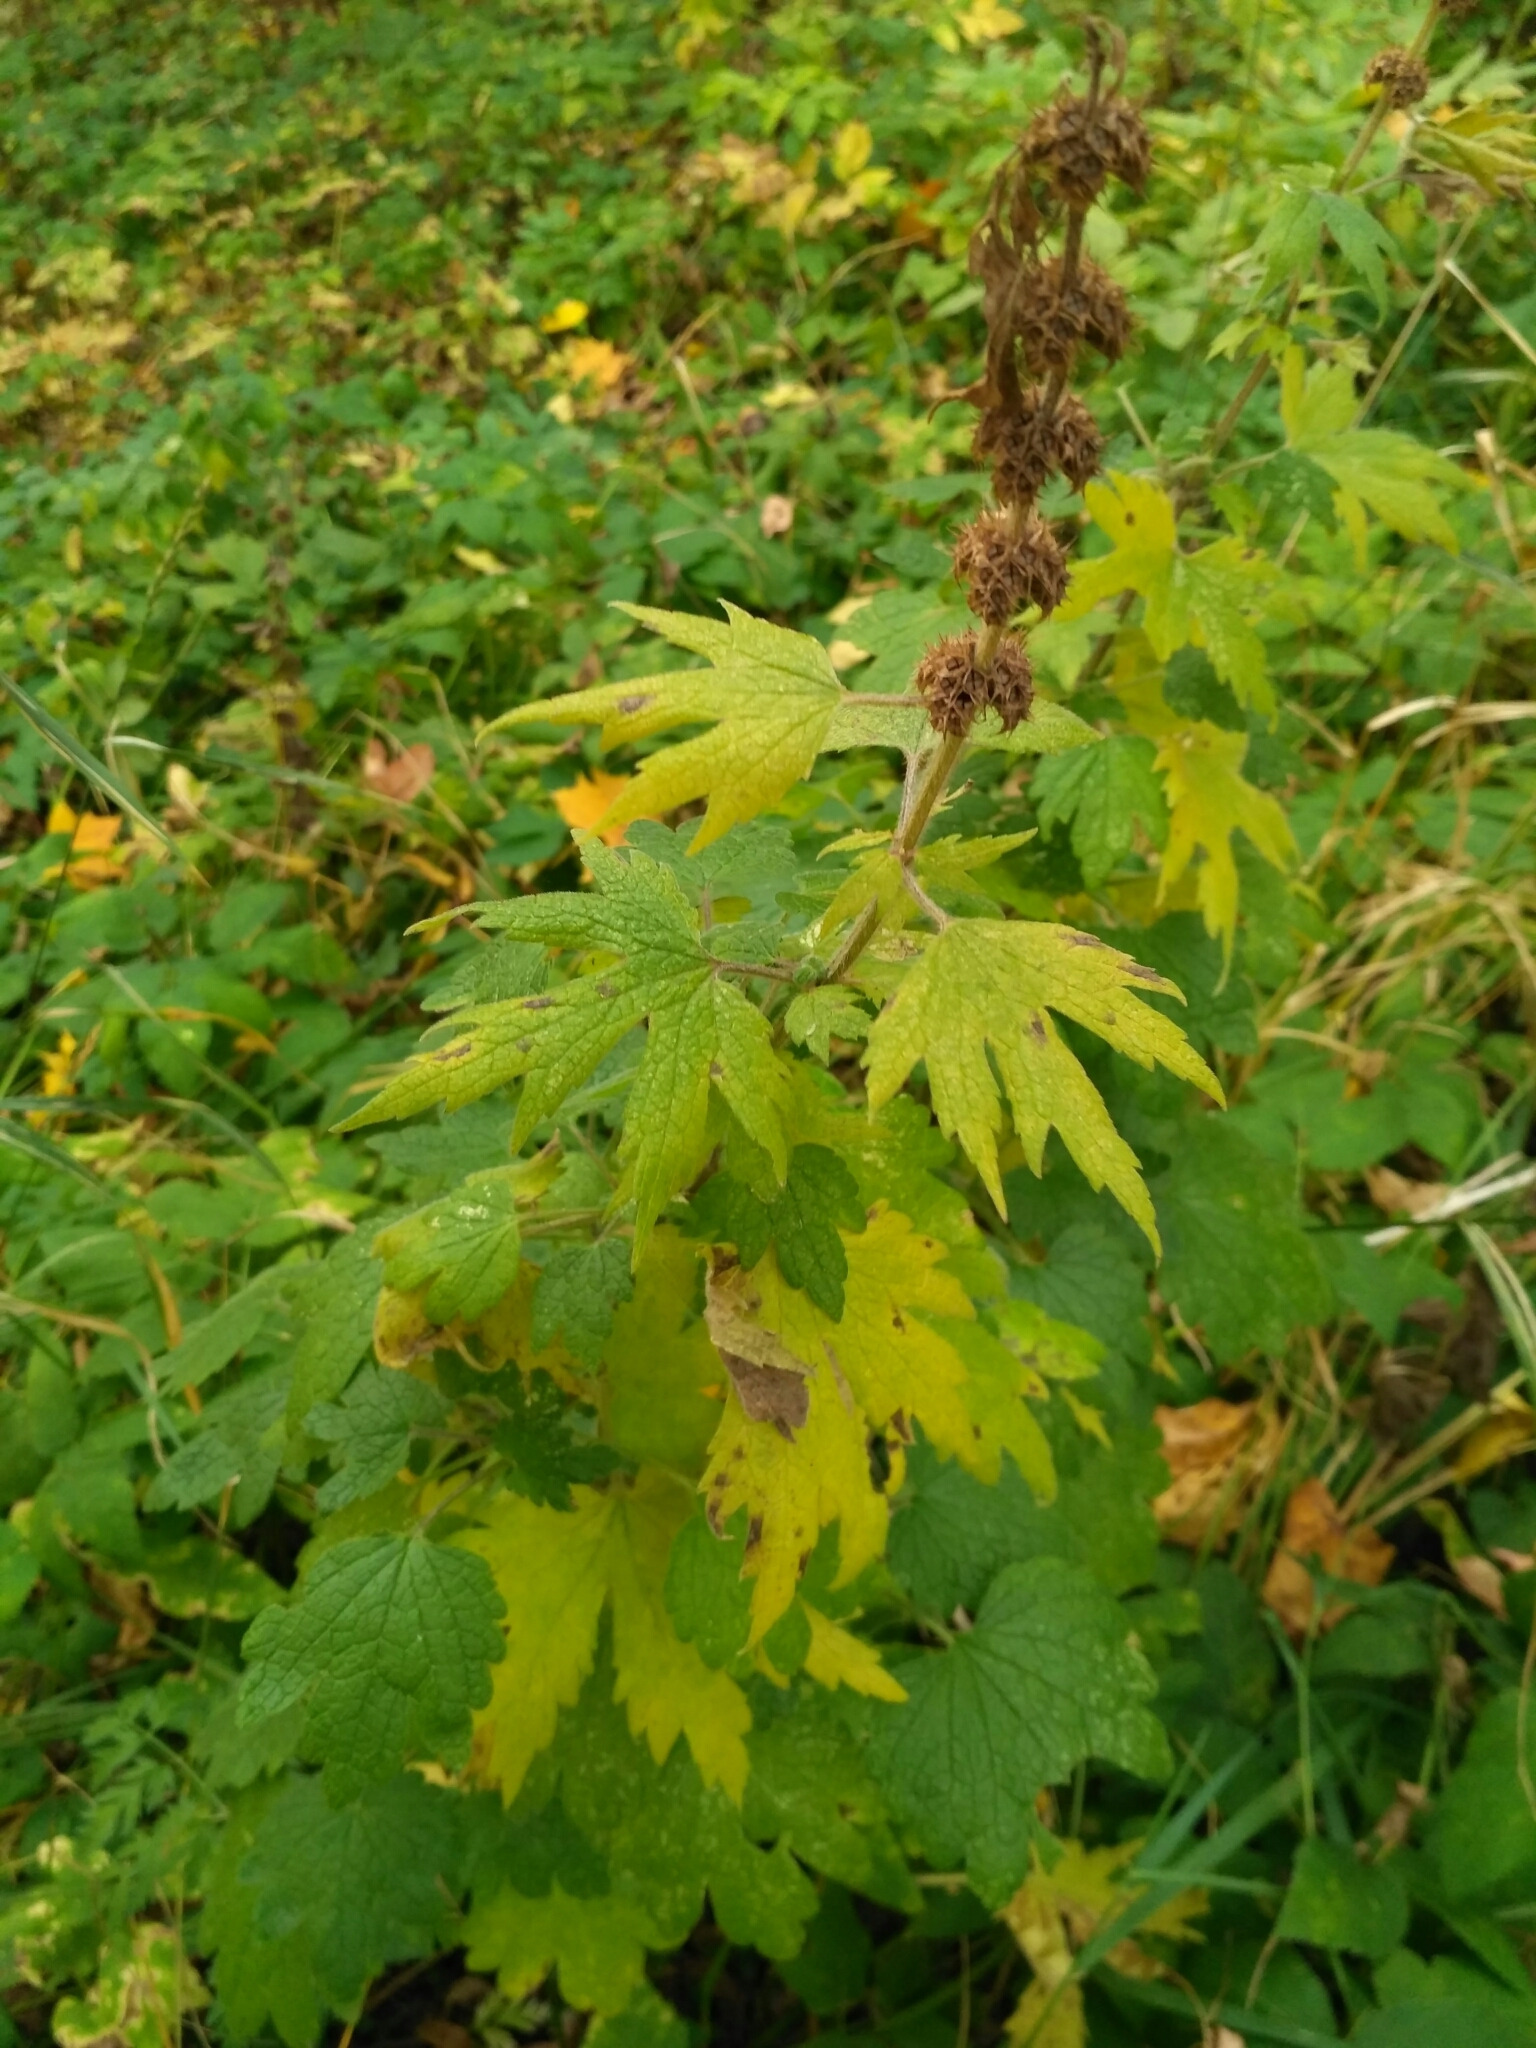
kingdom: Plantae
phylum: Tracheophyta
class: Magnoliopsida
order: Lamiales
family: Lamiaceae
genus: Leonurus
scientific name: Leonurus quinquelobatus
